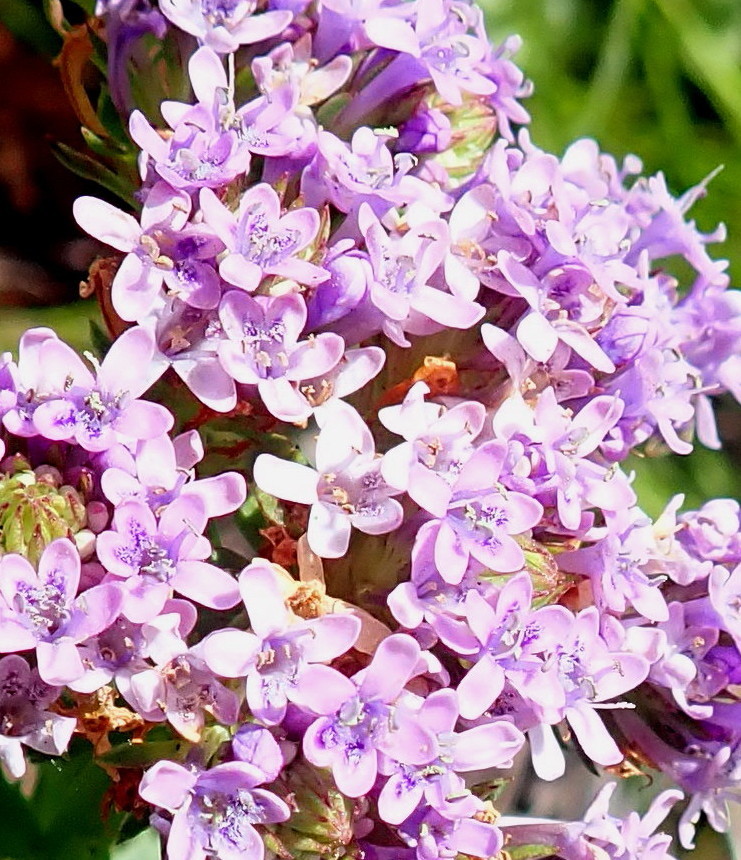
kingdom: Plantae
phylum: Tracheophyta
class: Magnoliopsida
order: Lamiales
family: Scrophulariaceae
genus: Pseudoselago
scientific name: Pseudoselago langebergensis
